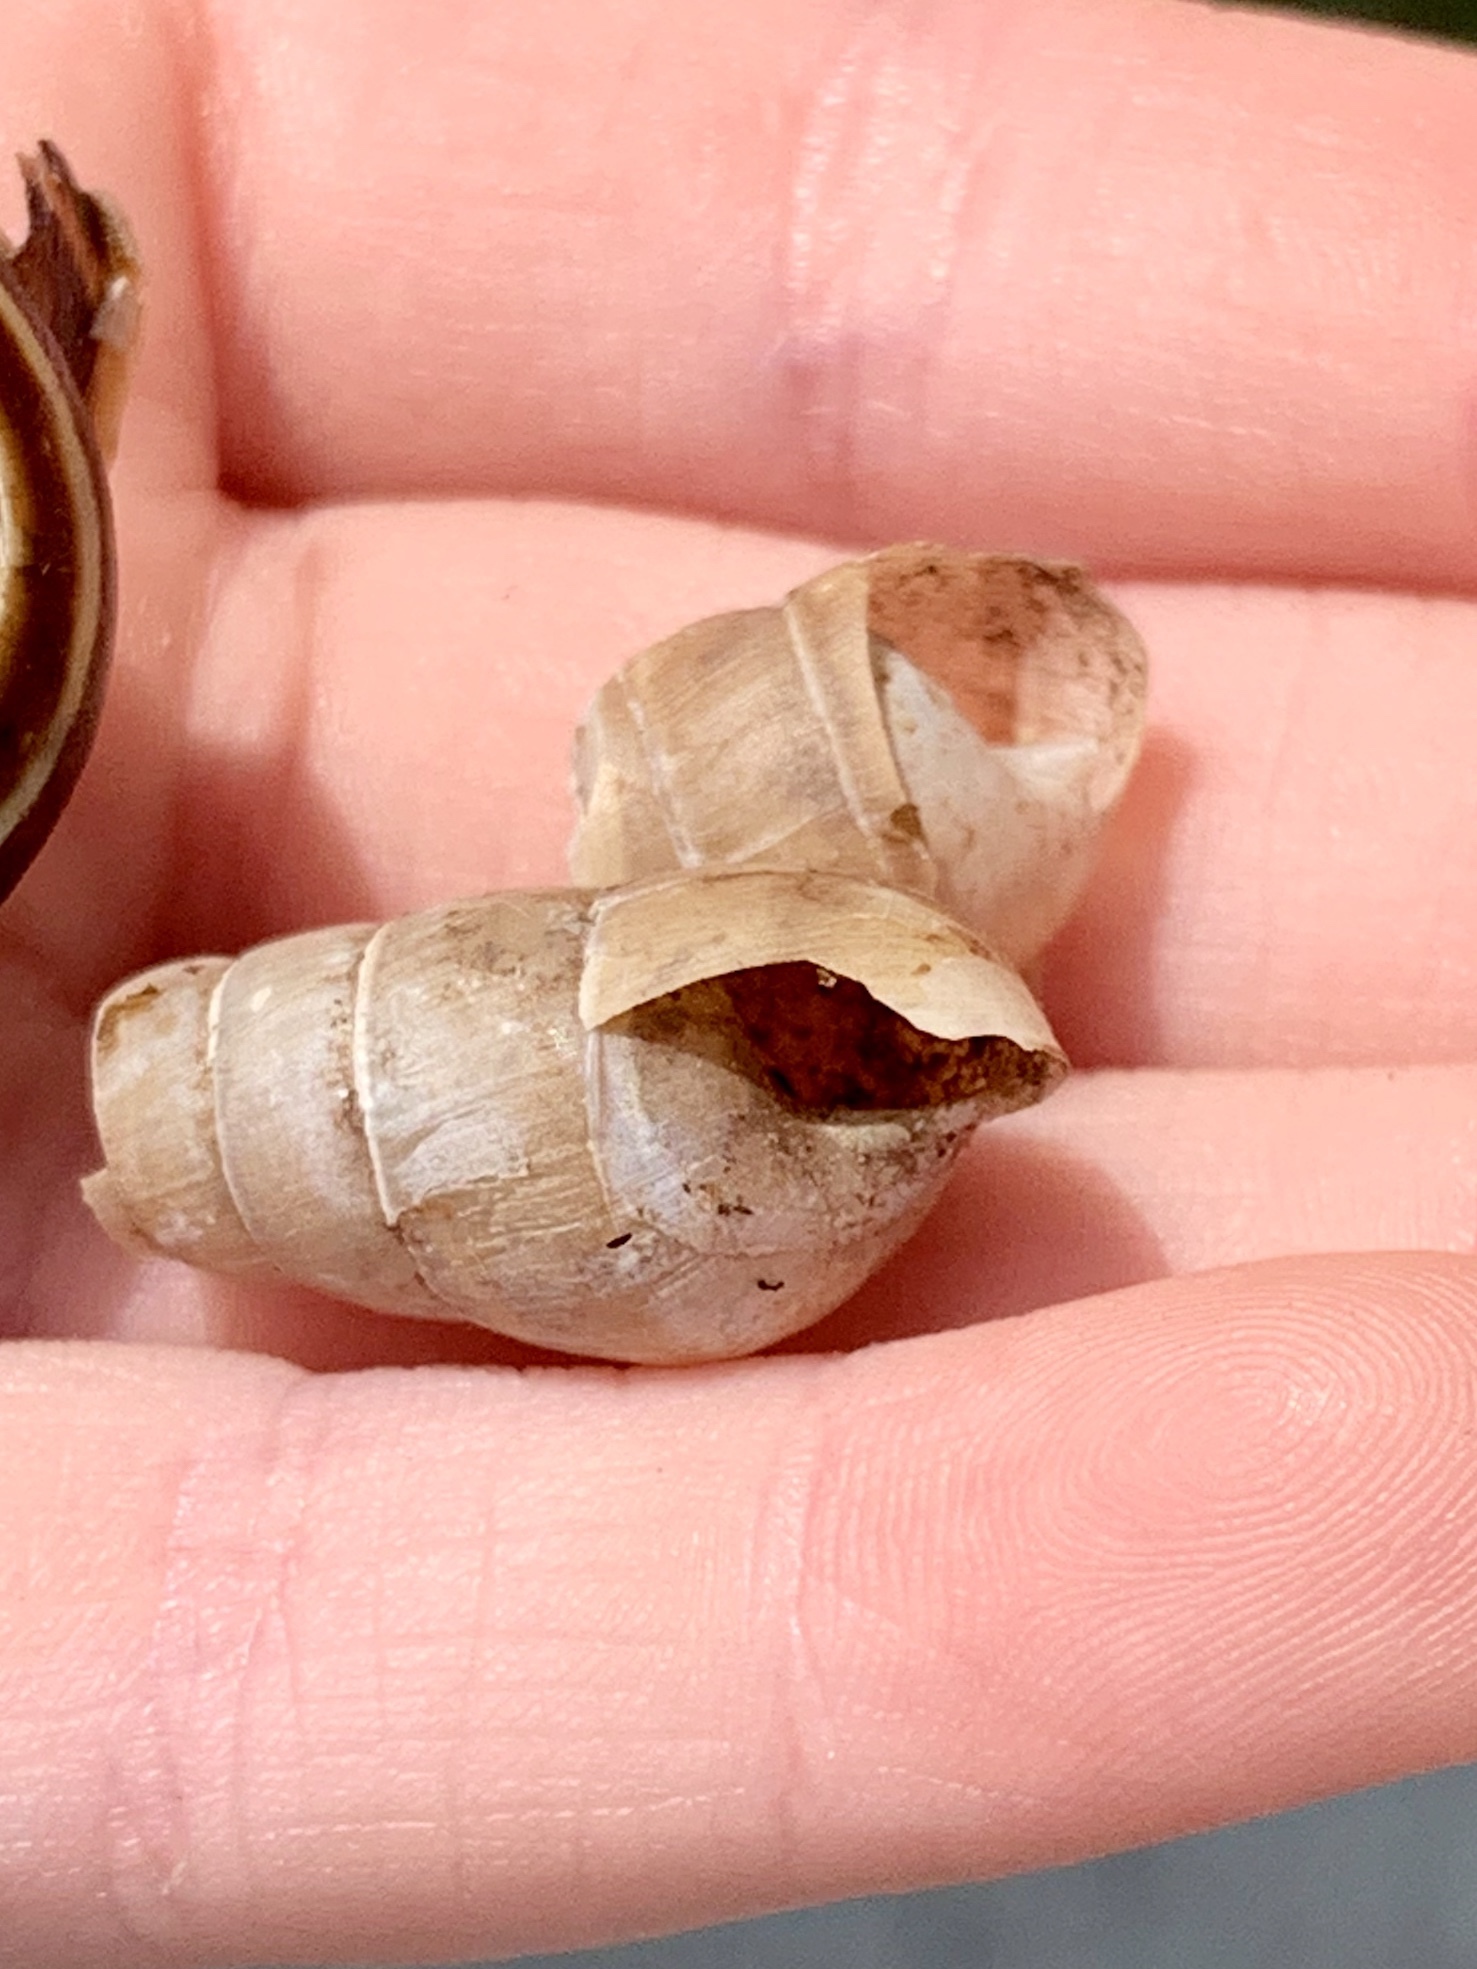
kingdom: Animalia
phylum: Mollusca
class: Gastropoda
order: Stylommatophora
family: Achatinidae
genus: Rumina
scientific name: Rumina decollata
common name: Decollate snail
